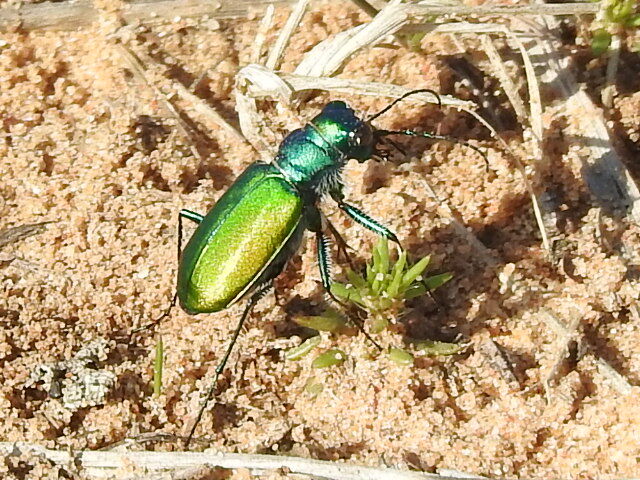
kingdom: Animalia
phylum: Arthropoda
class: Insecta
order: Coleoptera
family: Carabidae
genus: Cicindela
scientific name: Cicindela scutellaris
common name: Festive tiger beetle
